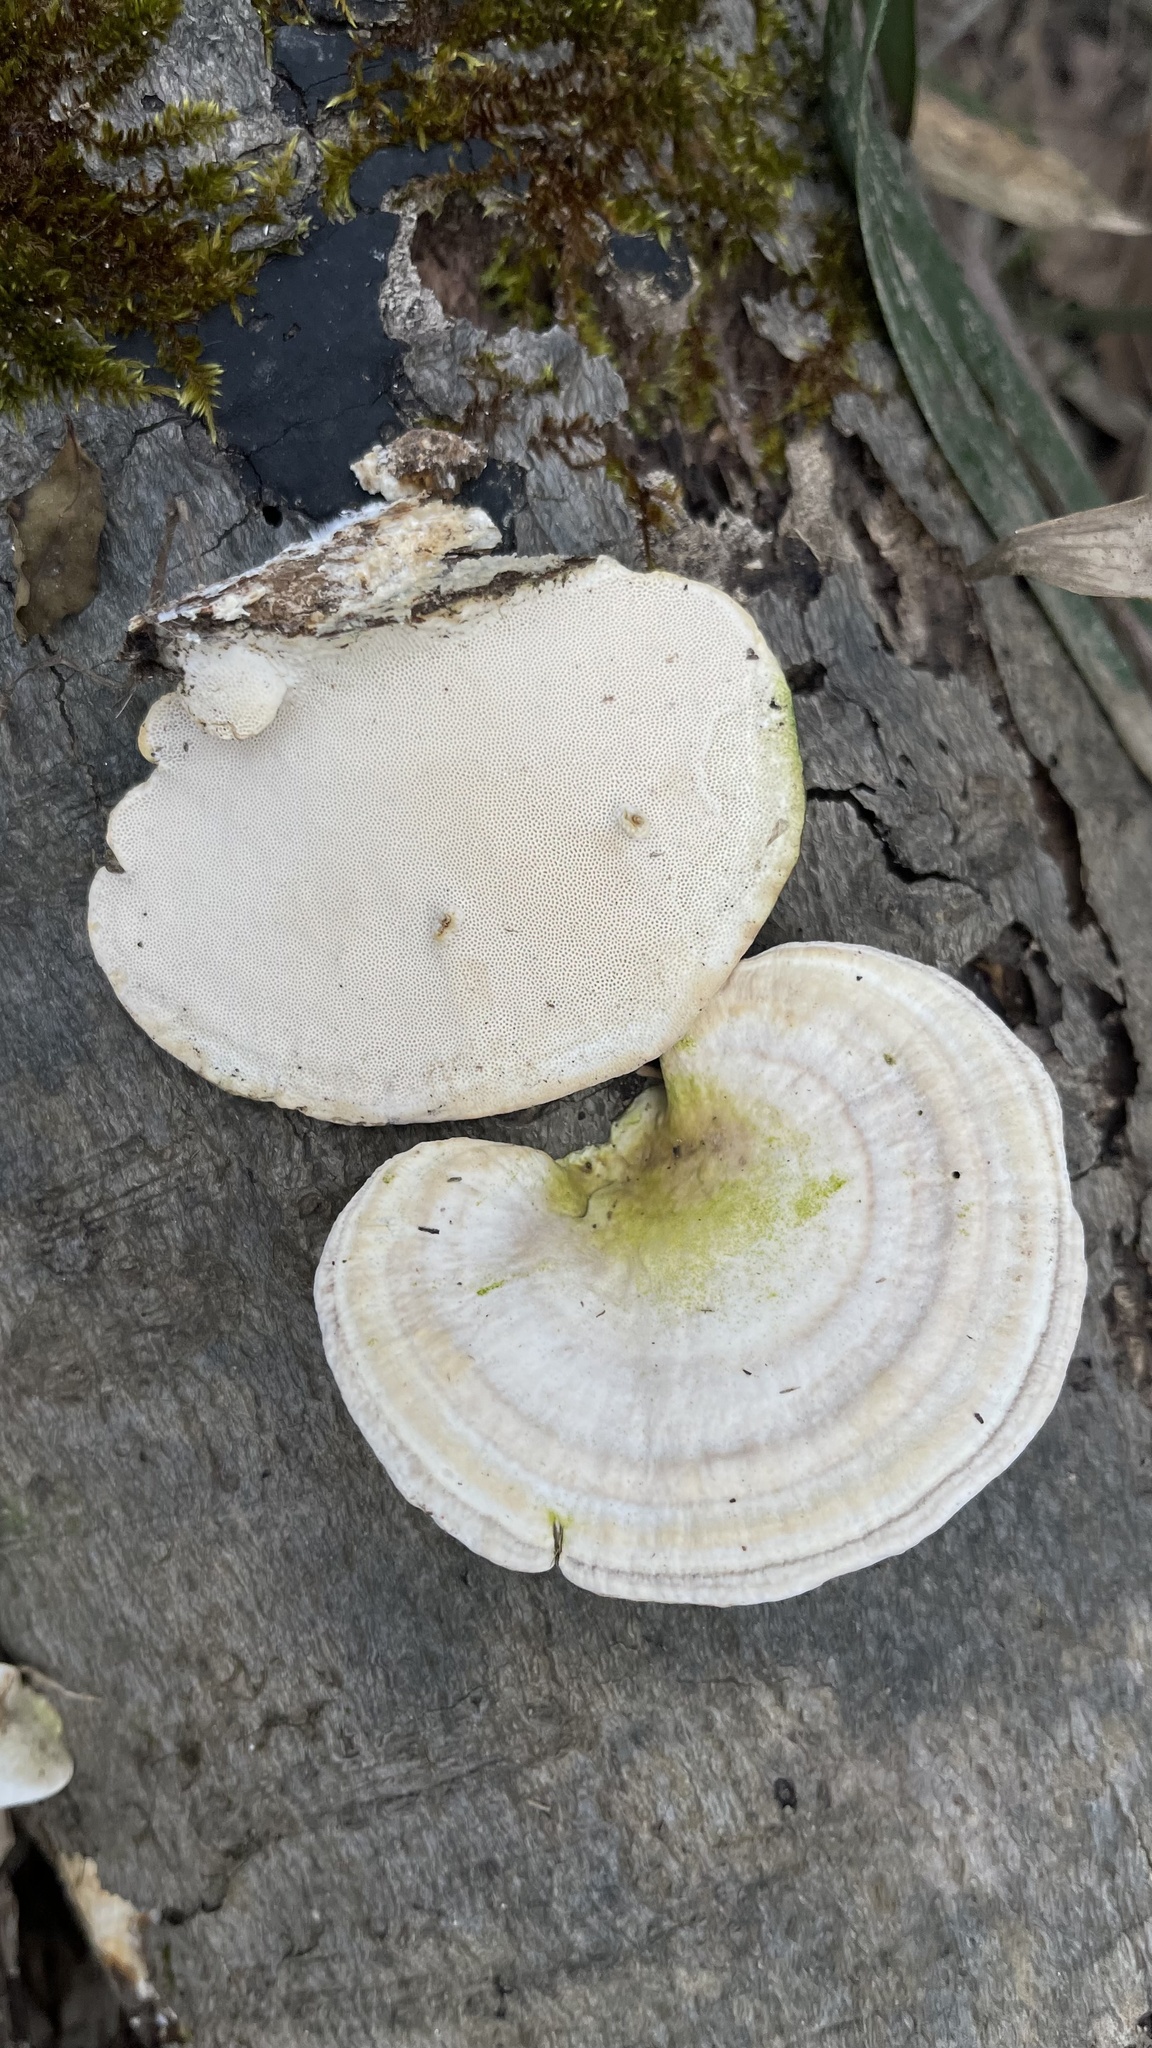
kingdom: Fungi
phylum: Basidiomycota
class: Agaricomycetes
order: Polyporales
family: Polyporaceae
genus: Trametes
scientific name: Trametes lactinea
